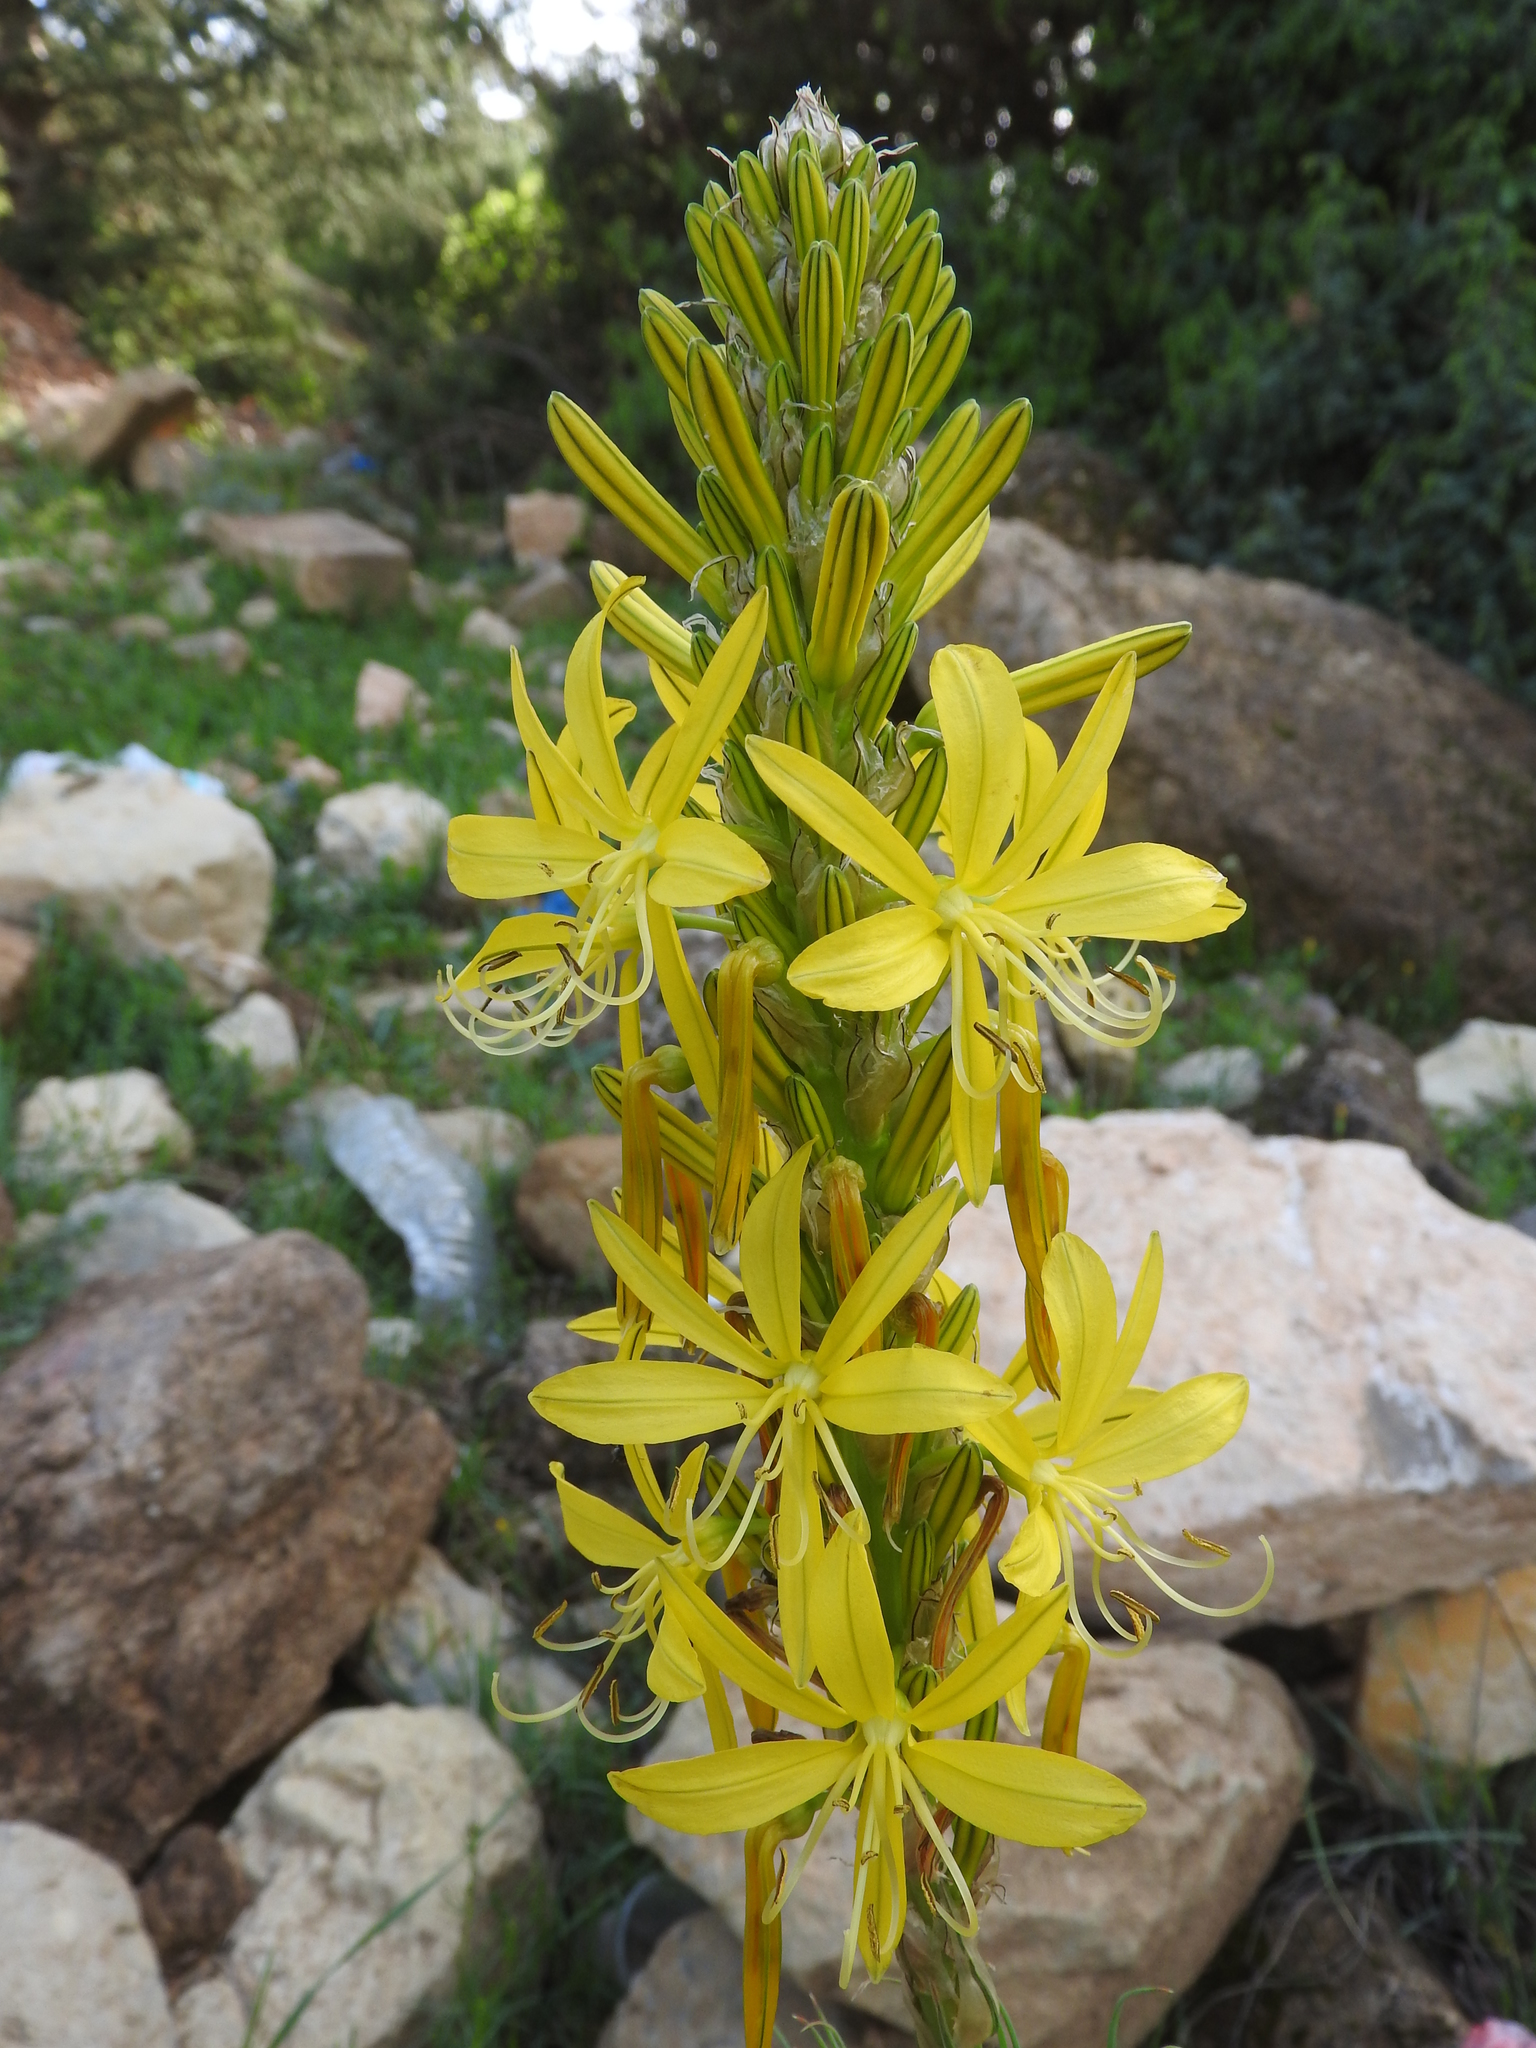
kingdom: Plantae
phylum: Tracheophyta
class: Liliopsida
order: Asparagales
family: Asphodelaceae
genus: Asphodeline
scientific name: Asphodeline lutea
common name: Yellow asphodel
